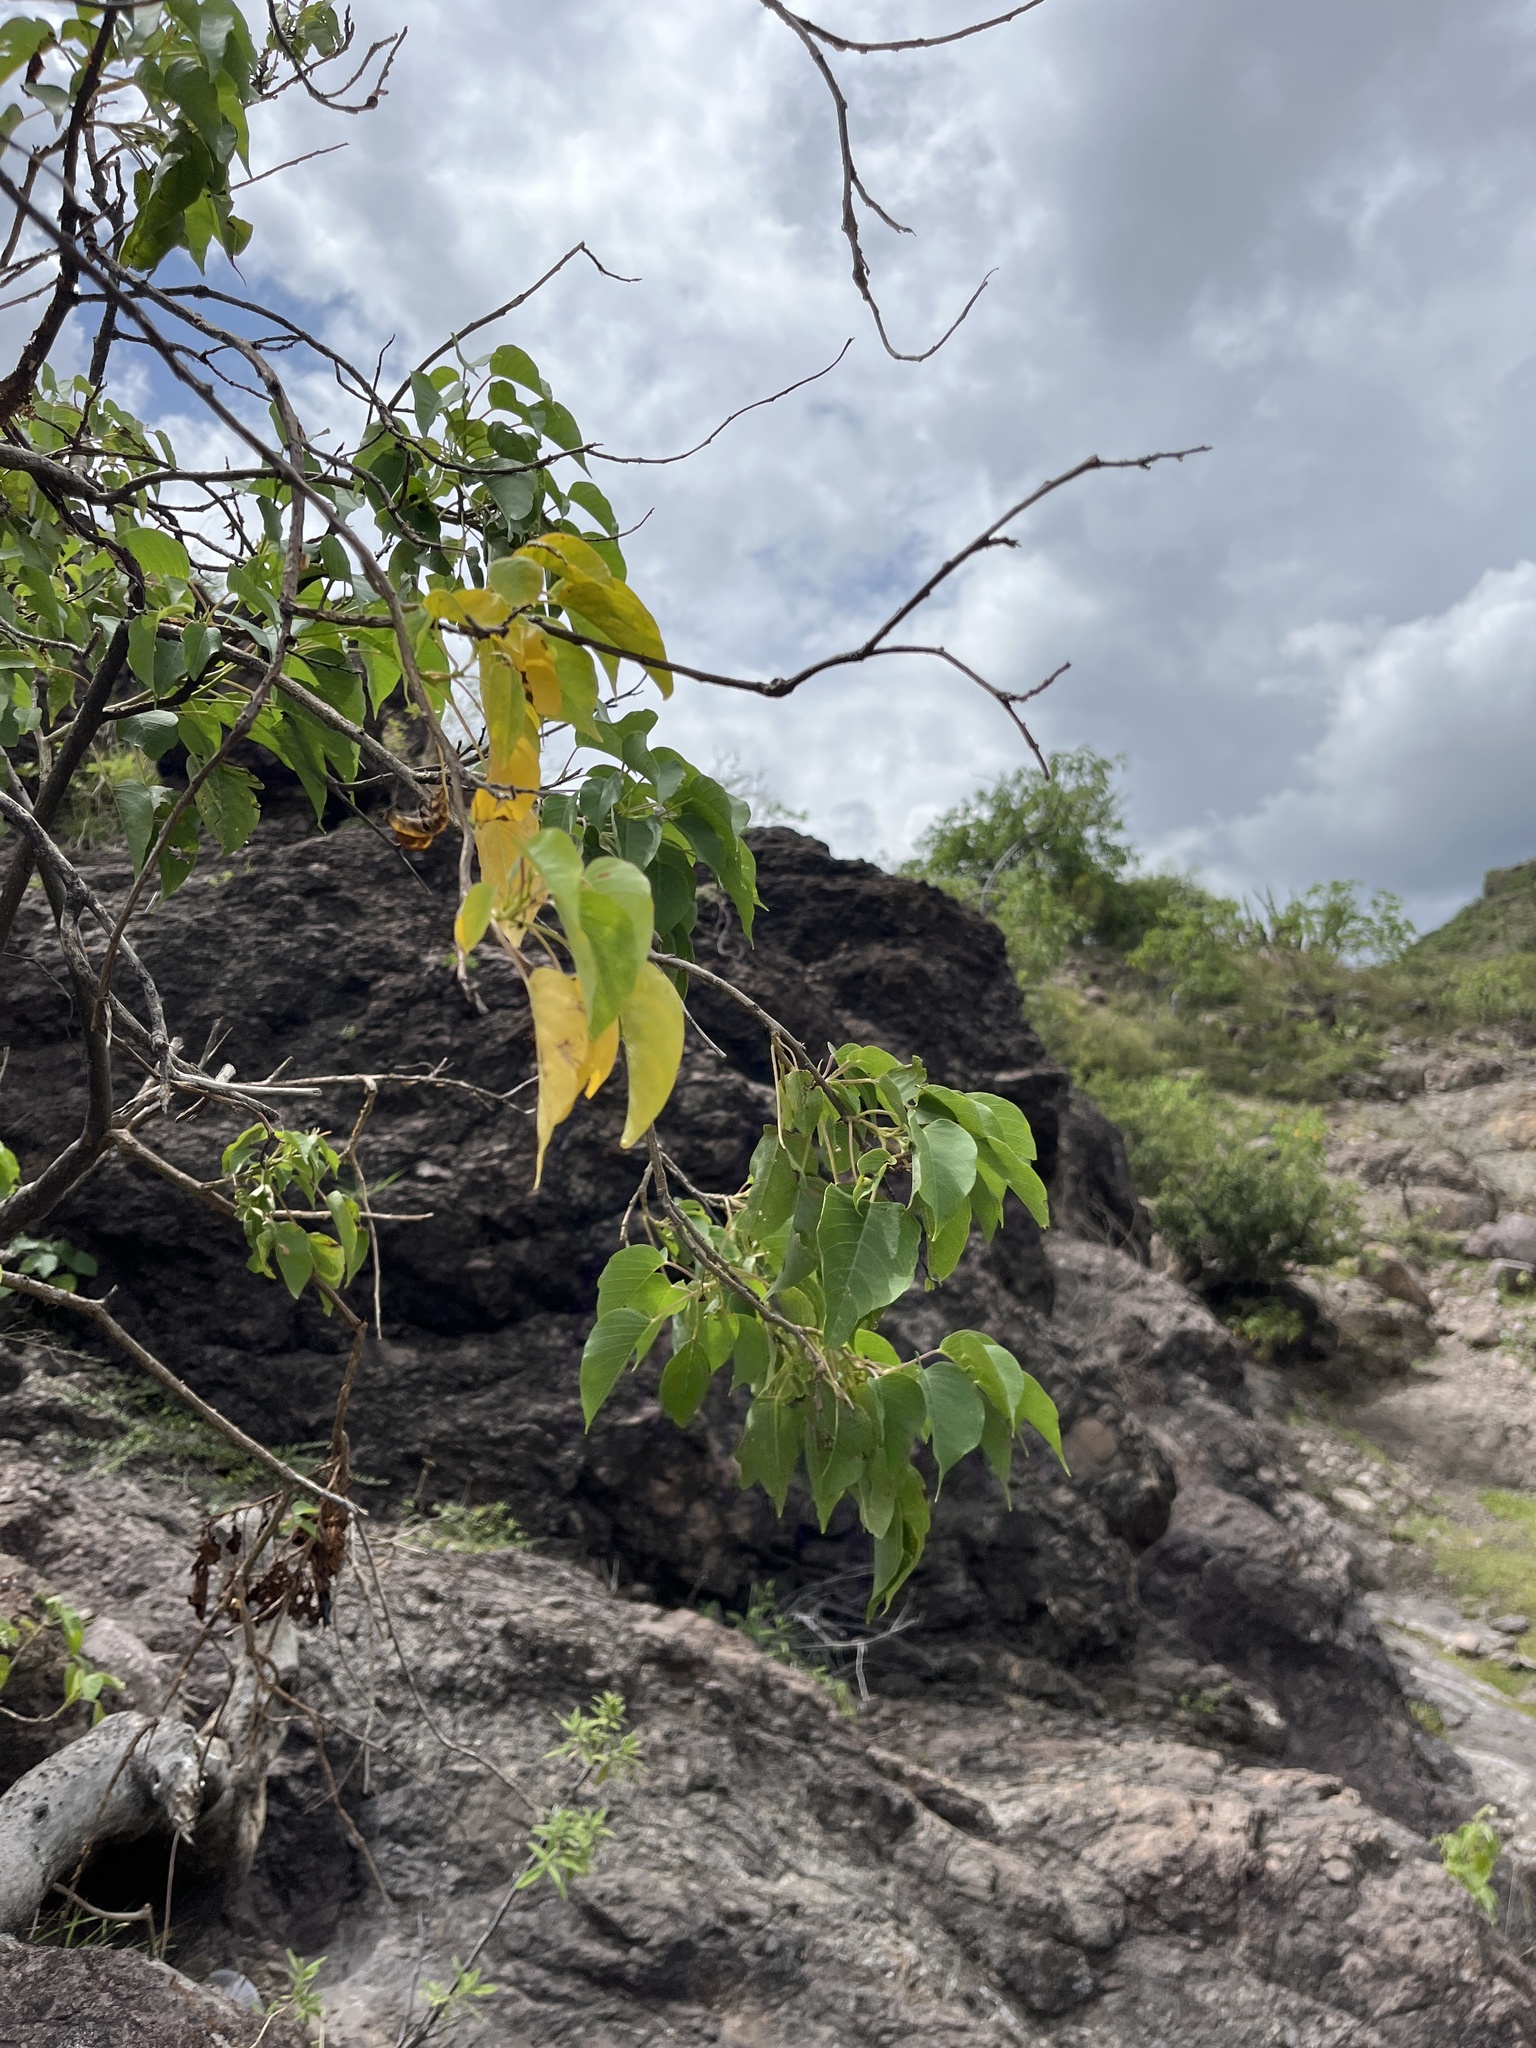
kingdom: Plantae
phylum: Tracheophyta
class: Magnoliopsida
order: Solanales
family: Convolvulaceae
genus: Ipomoea
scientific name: Ipomoea pauciflora
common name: Tree morningglory
